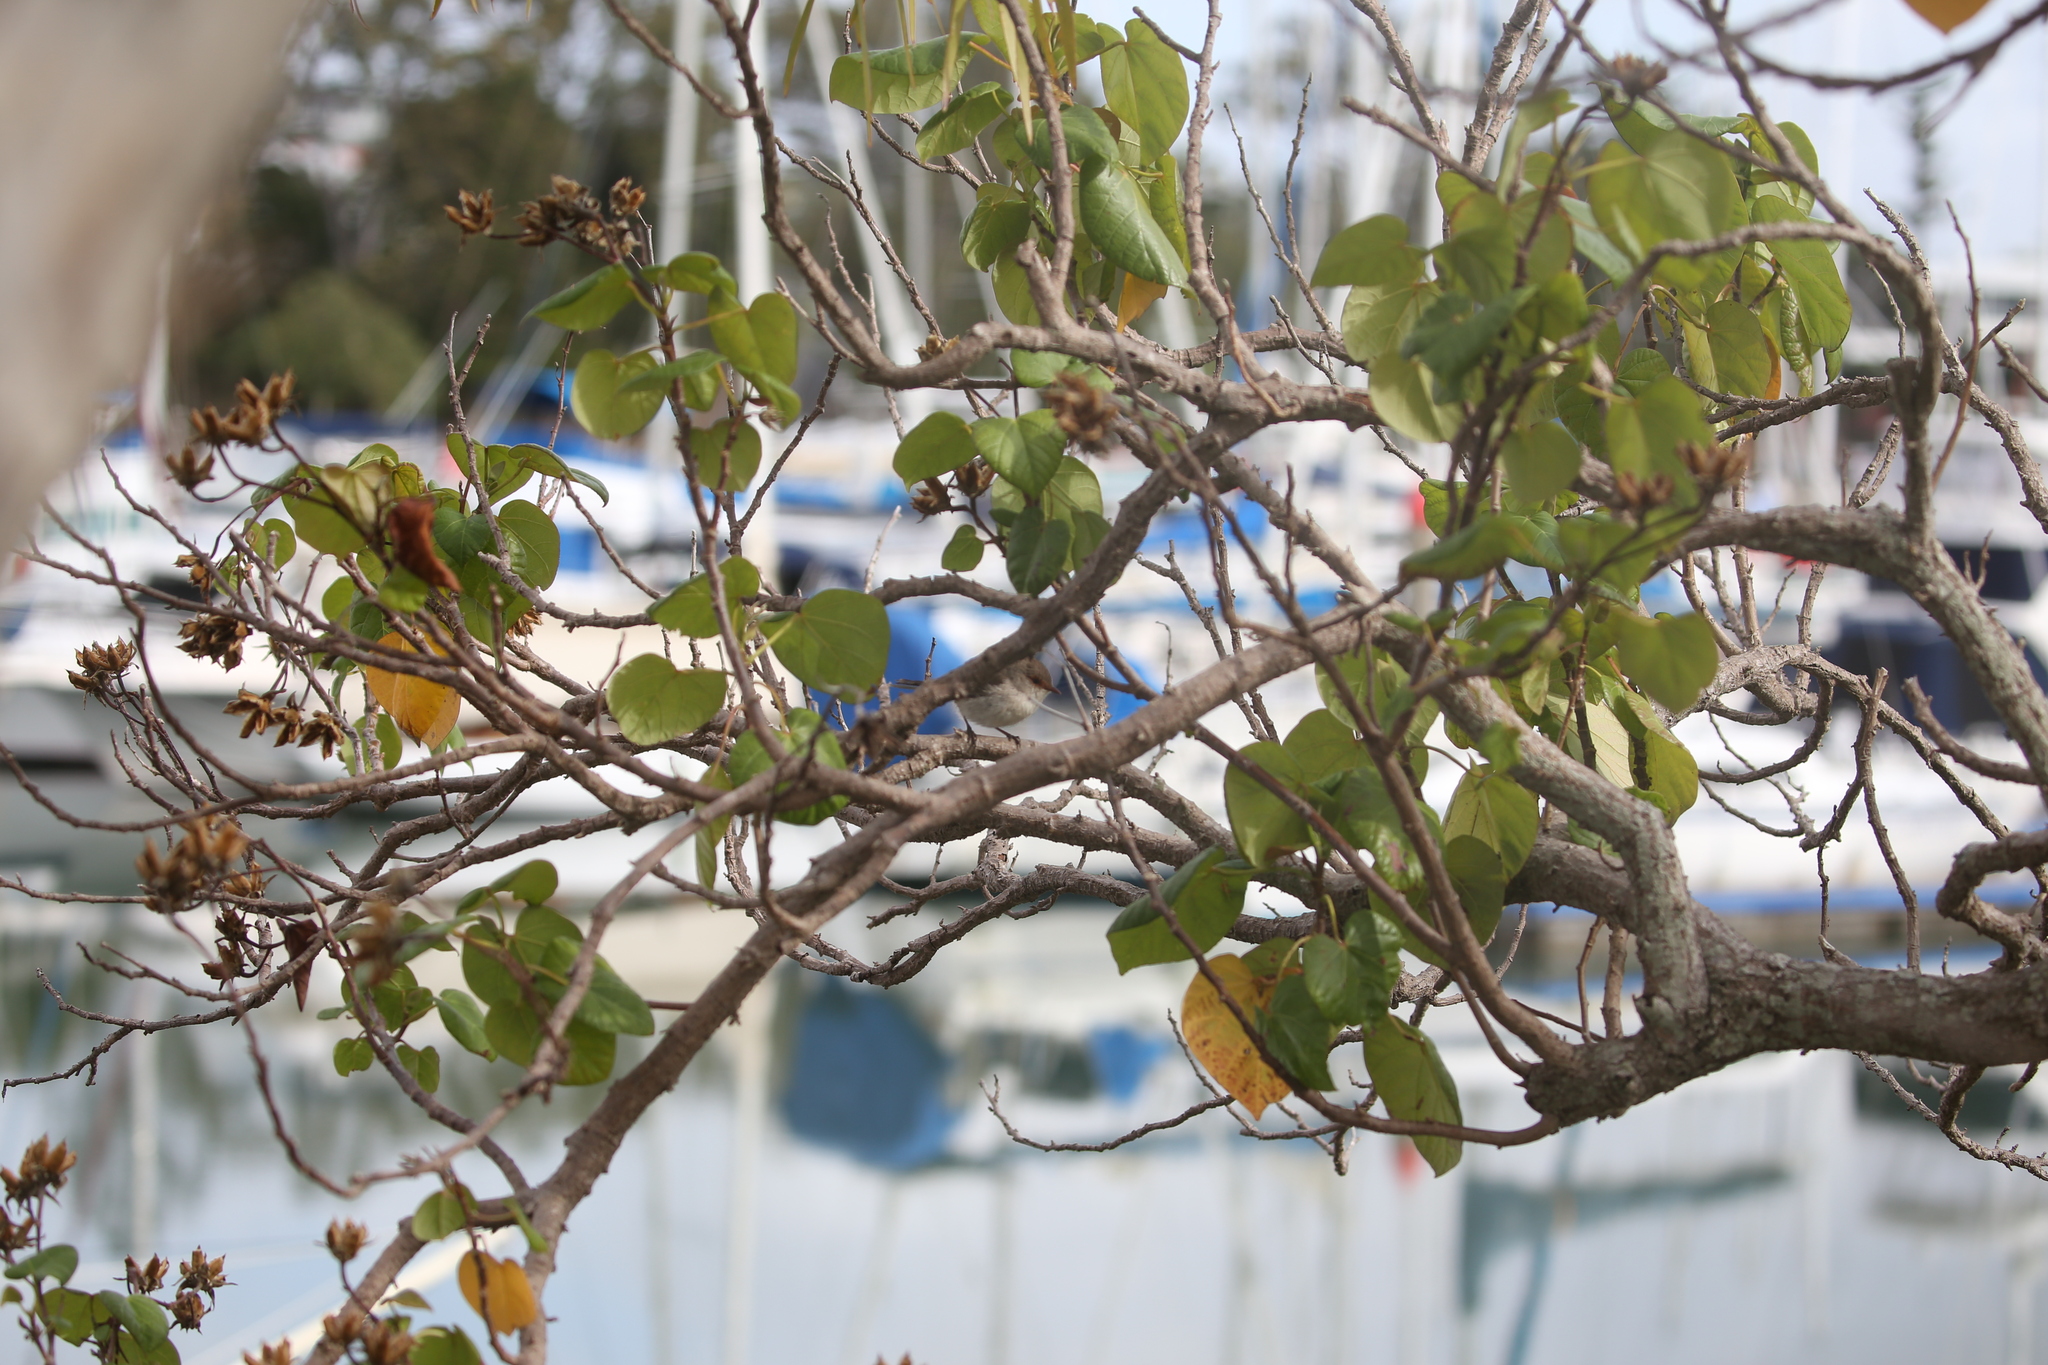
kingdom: Animalia
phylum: Chordata
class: Aves
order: Passeriformes
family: Maluridae
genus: Malurus
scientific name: Malurus cyaneus
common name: Superb fairywren
